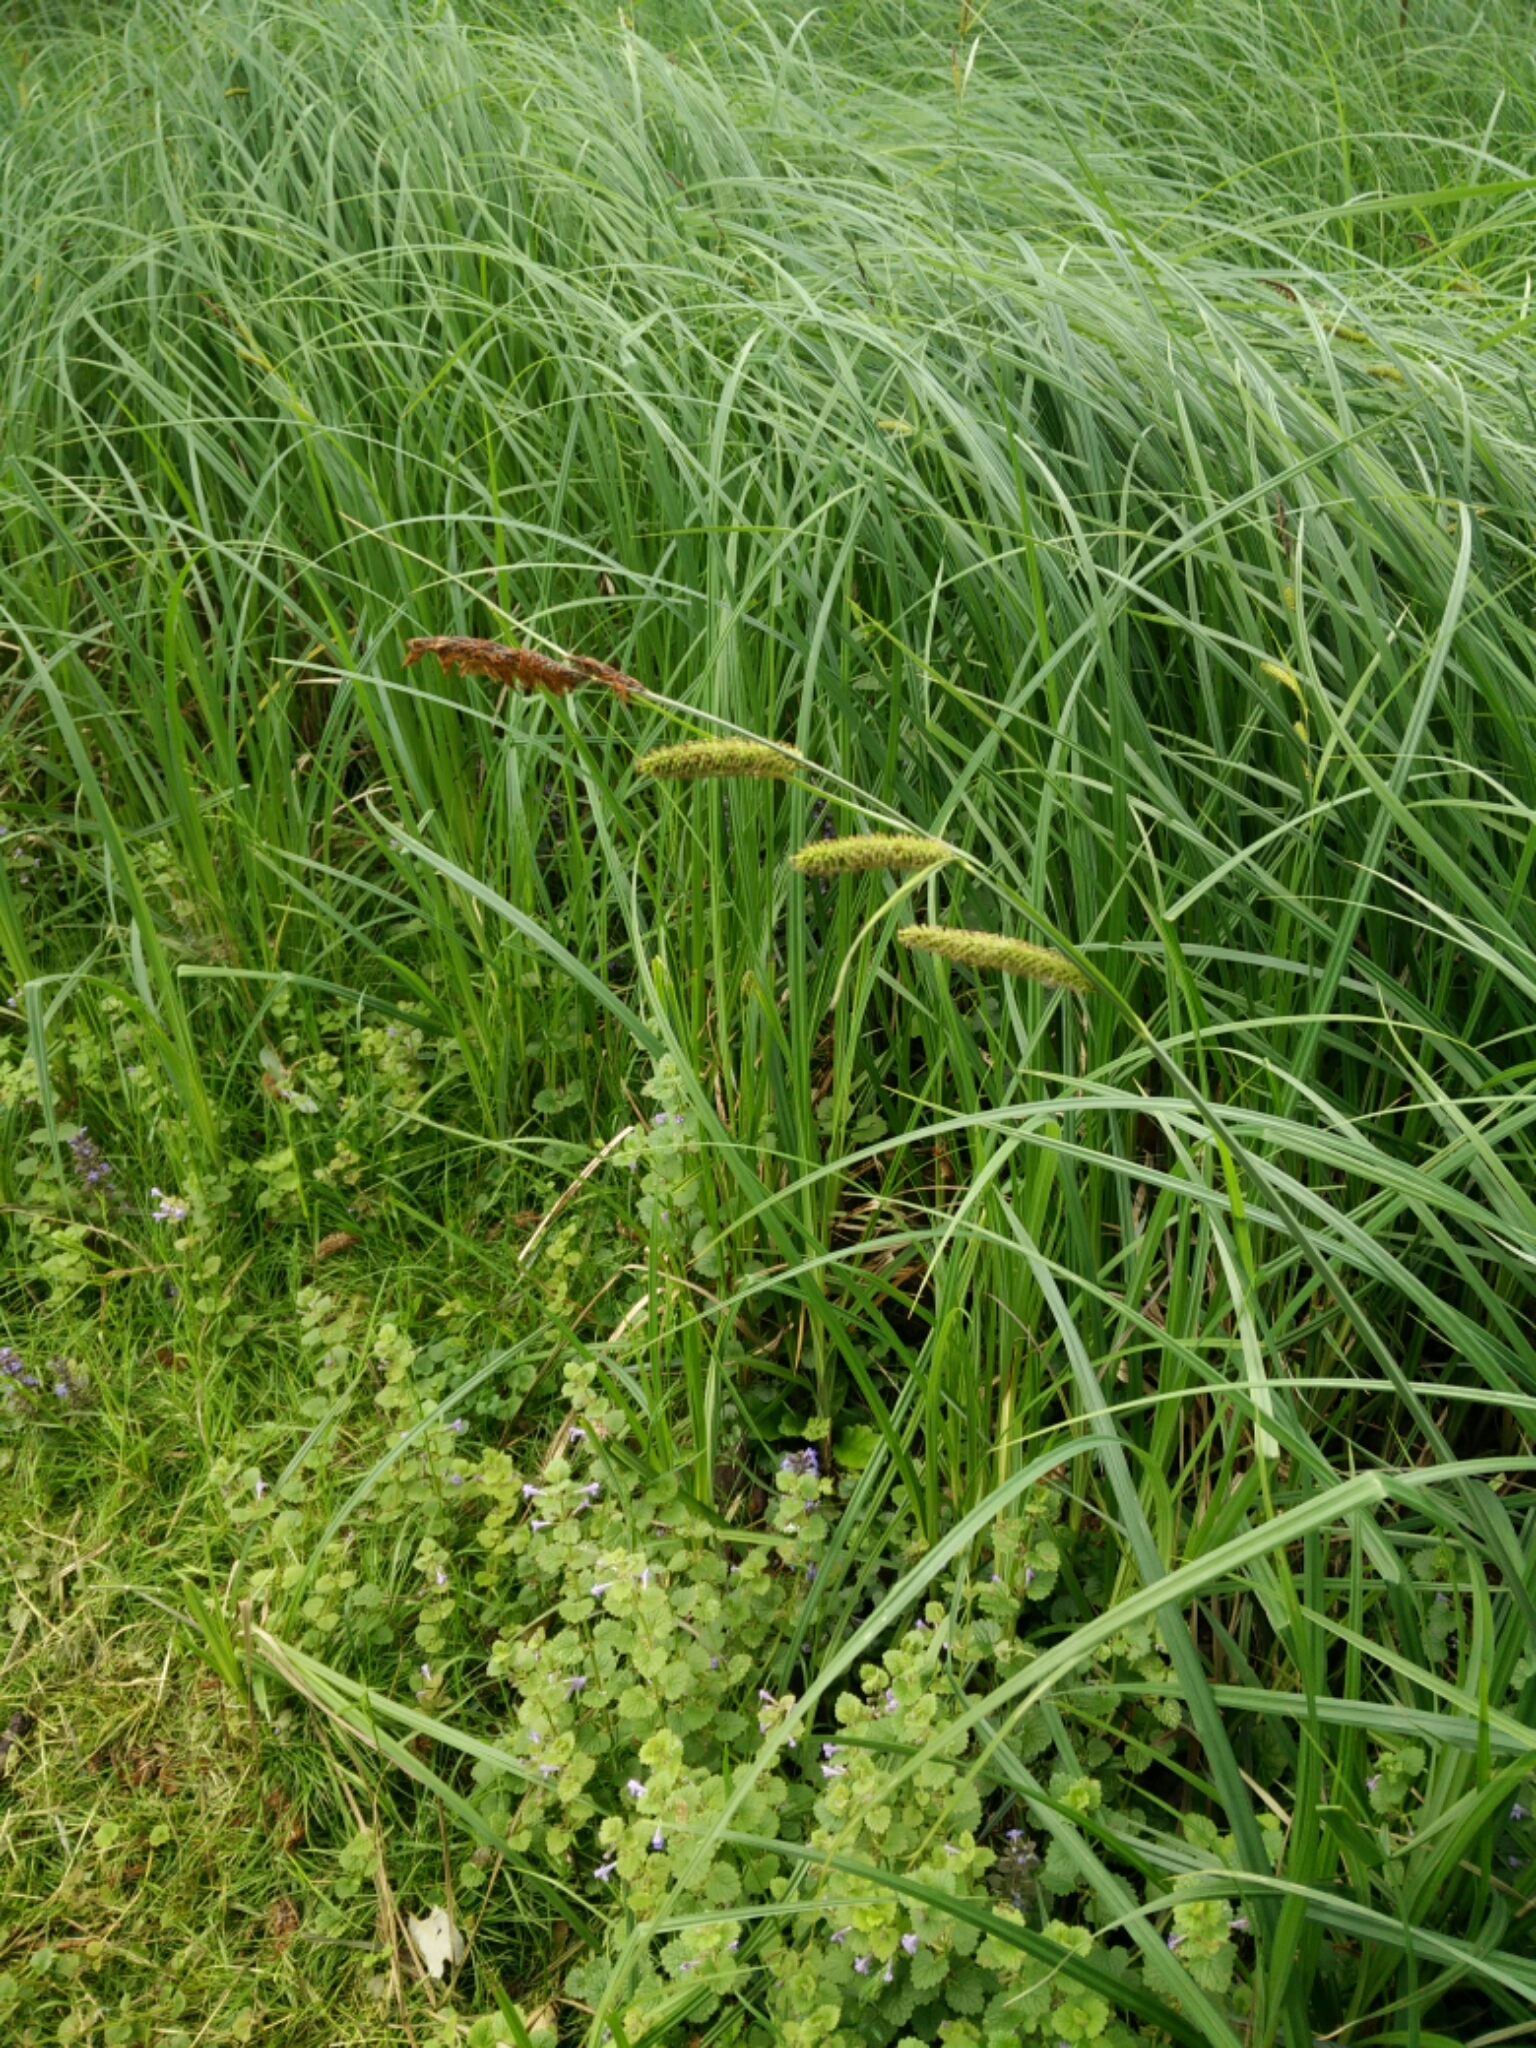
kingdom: Plantae
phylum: Tracheophyta
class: Liliopsida
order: Poales
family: Cyperaceae
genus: Carex
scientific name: Carex acutiformis
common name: Lesser pond-sedge
